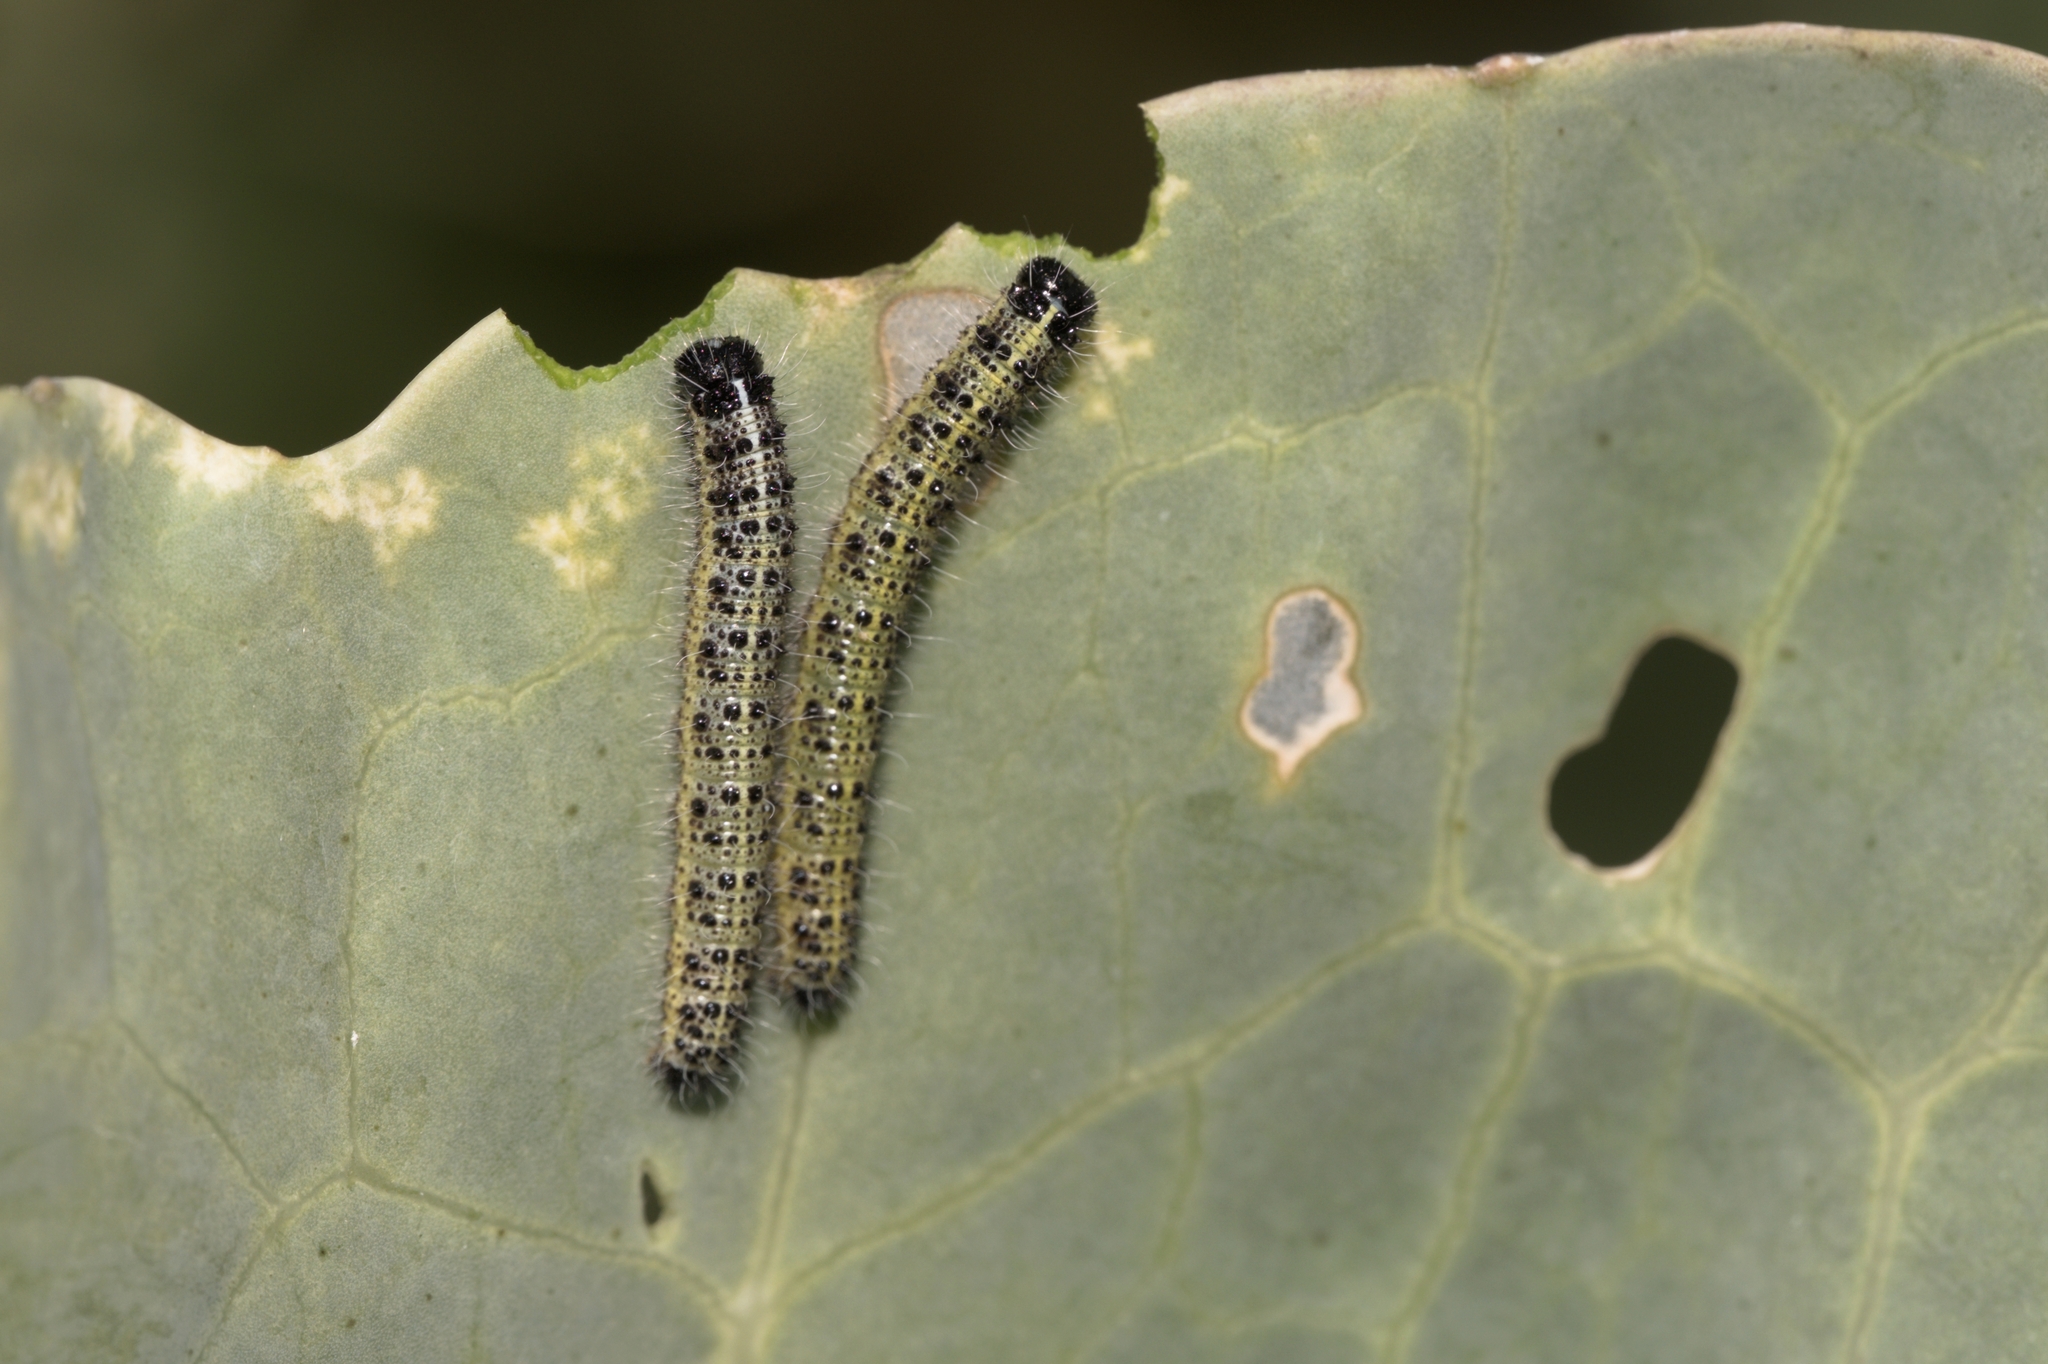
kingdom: Animalia
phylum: Arthropoda
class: Insecta
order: Lepidoptera
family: Pieridae
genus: Pieris
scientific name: Pieris brassicae
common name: Large white
